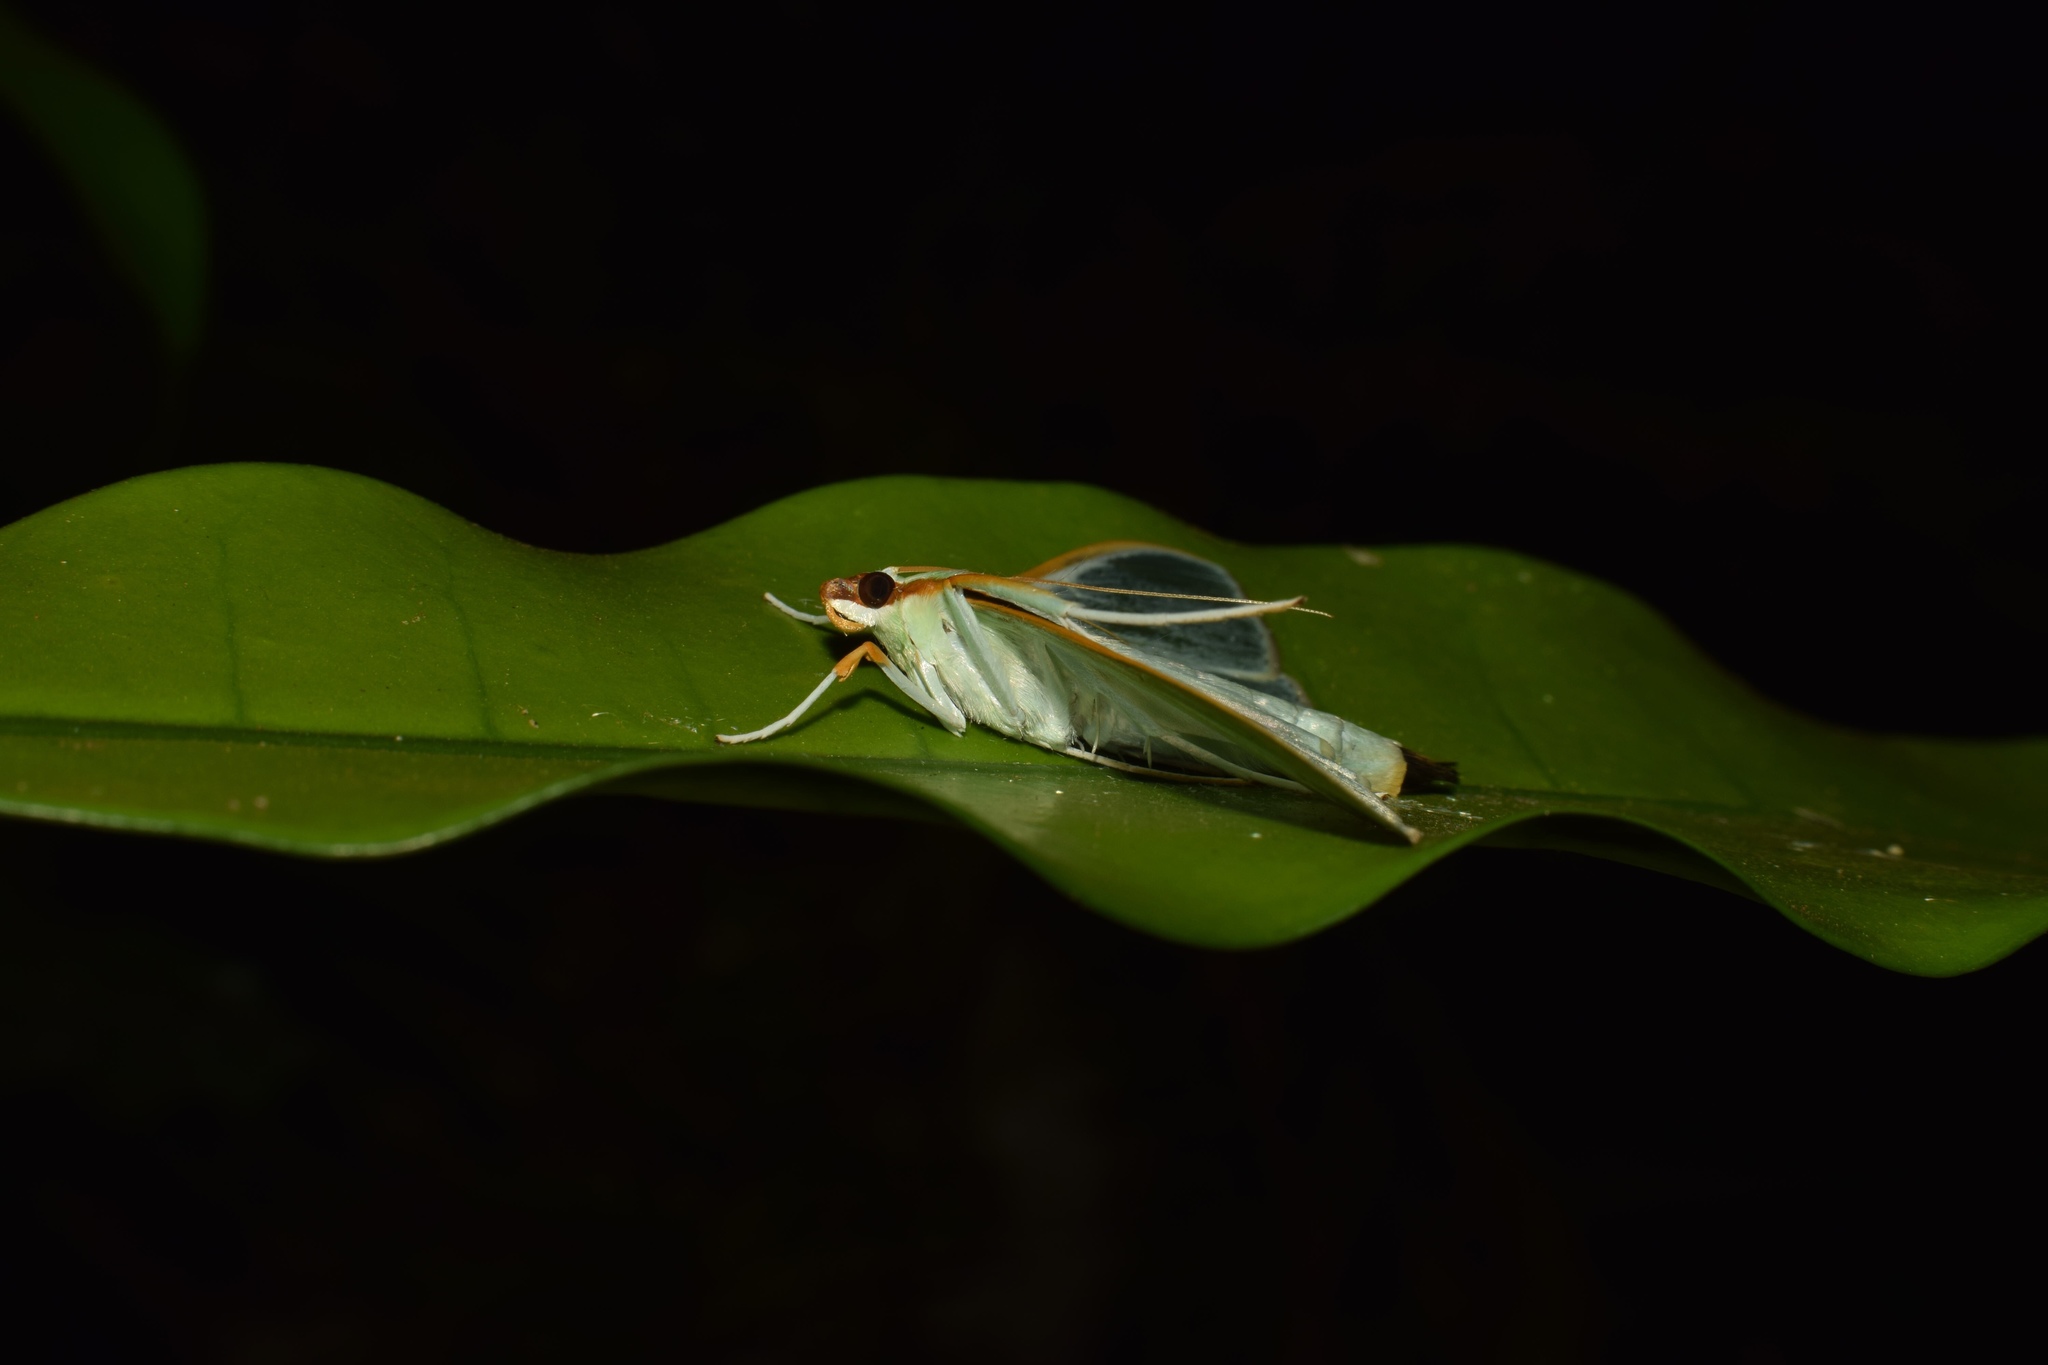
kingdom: Animalia
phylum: Arthropoda
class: Insecta
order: Lepidoptera
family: Crambidae
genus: Stemorrhages
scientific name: Stemorrhages sericea
